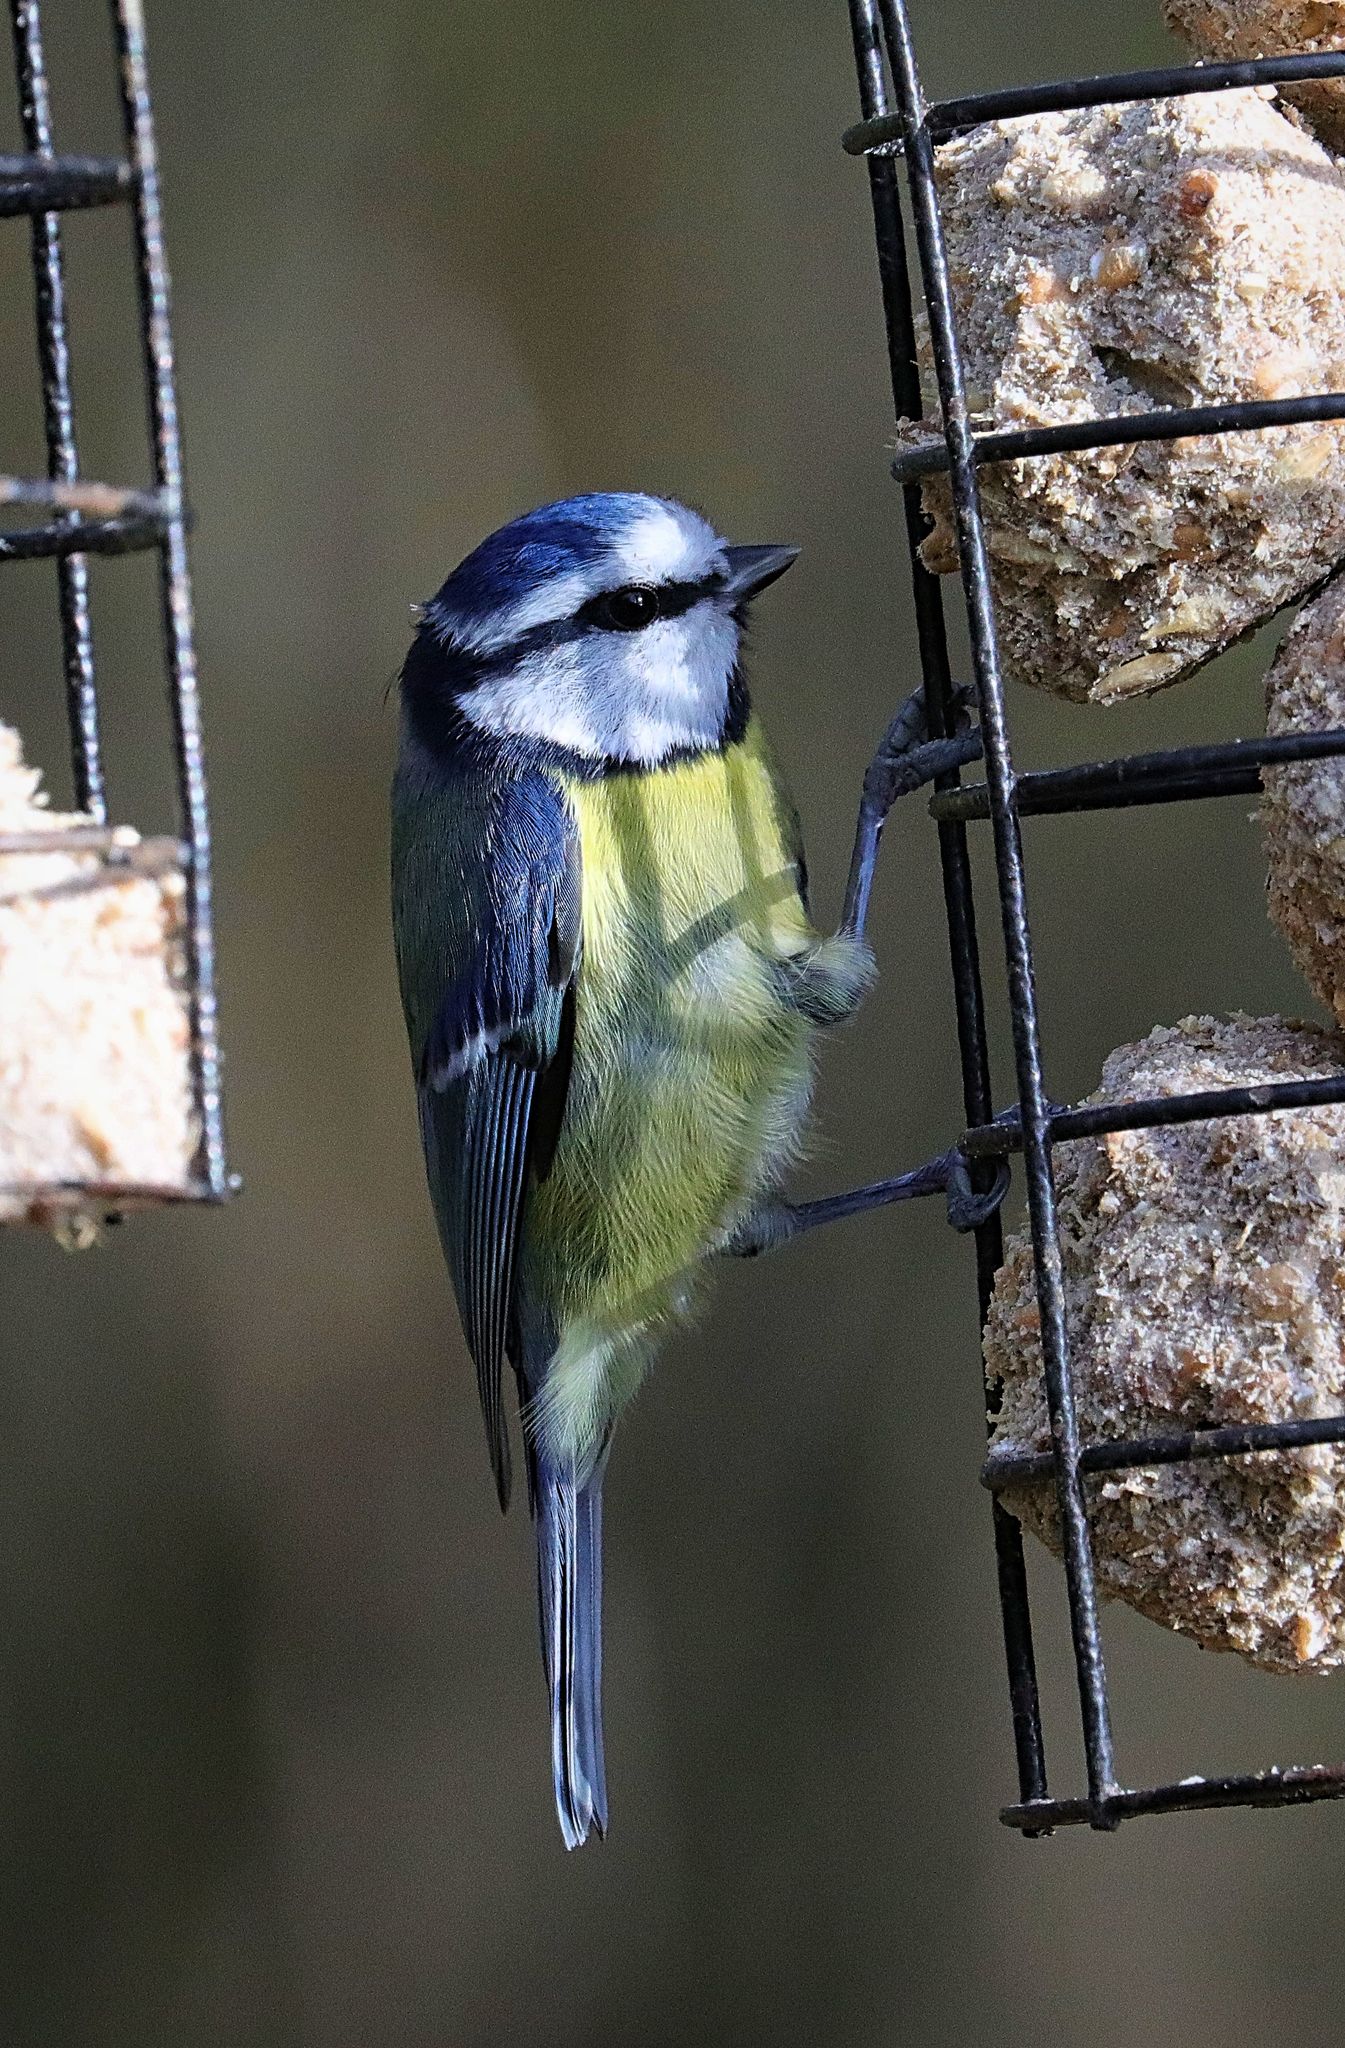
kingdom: Animalia
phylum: Chordata
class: Aves
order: Passeriformes
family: Paridae
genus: Cyanistes
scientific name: Cyanistes caeruleus
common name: Eurasian blue tit
